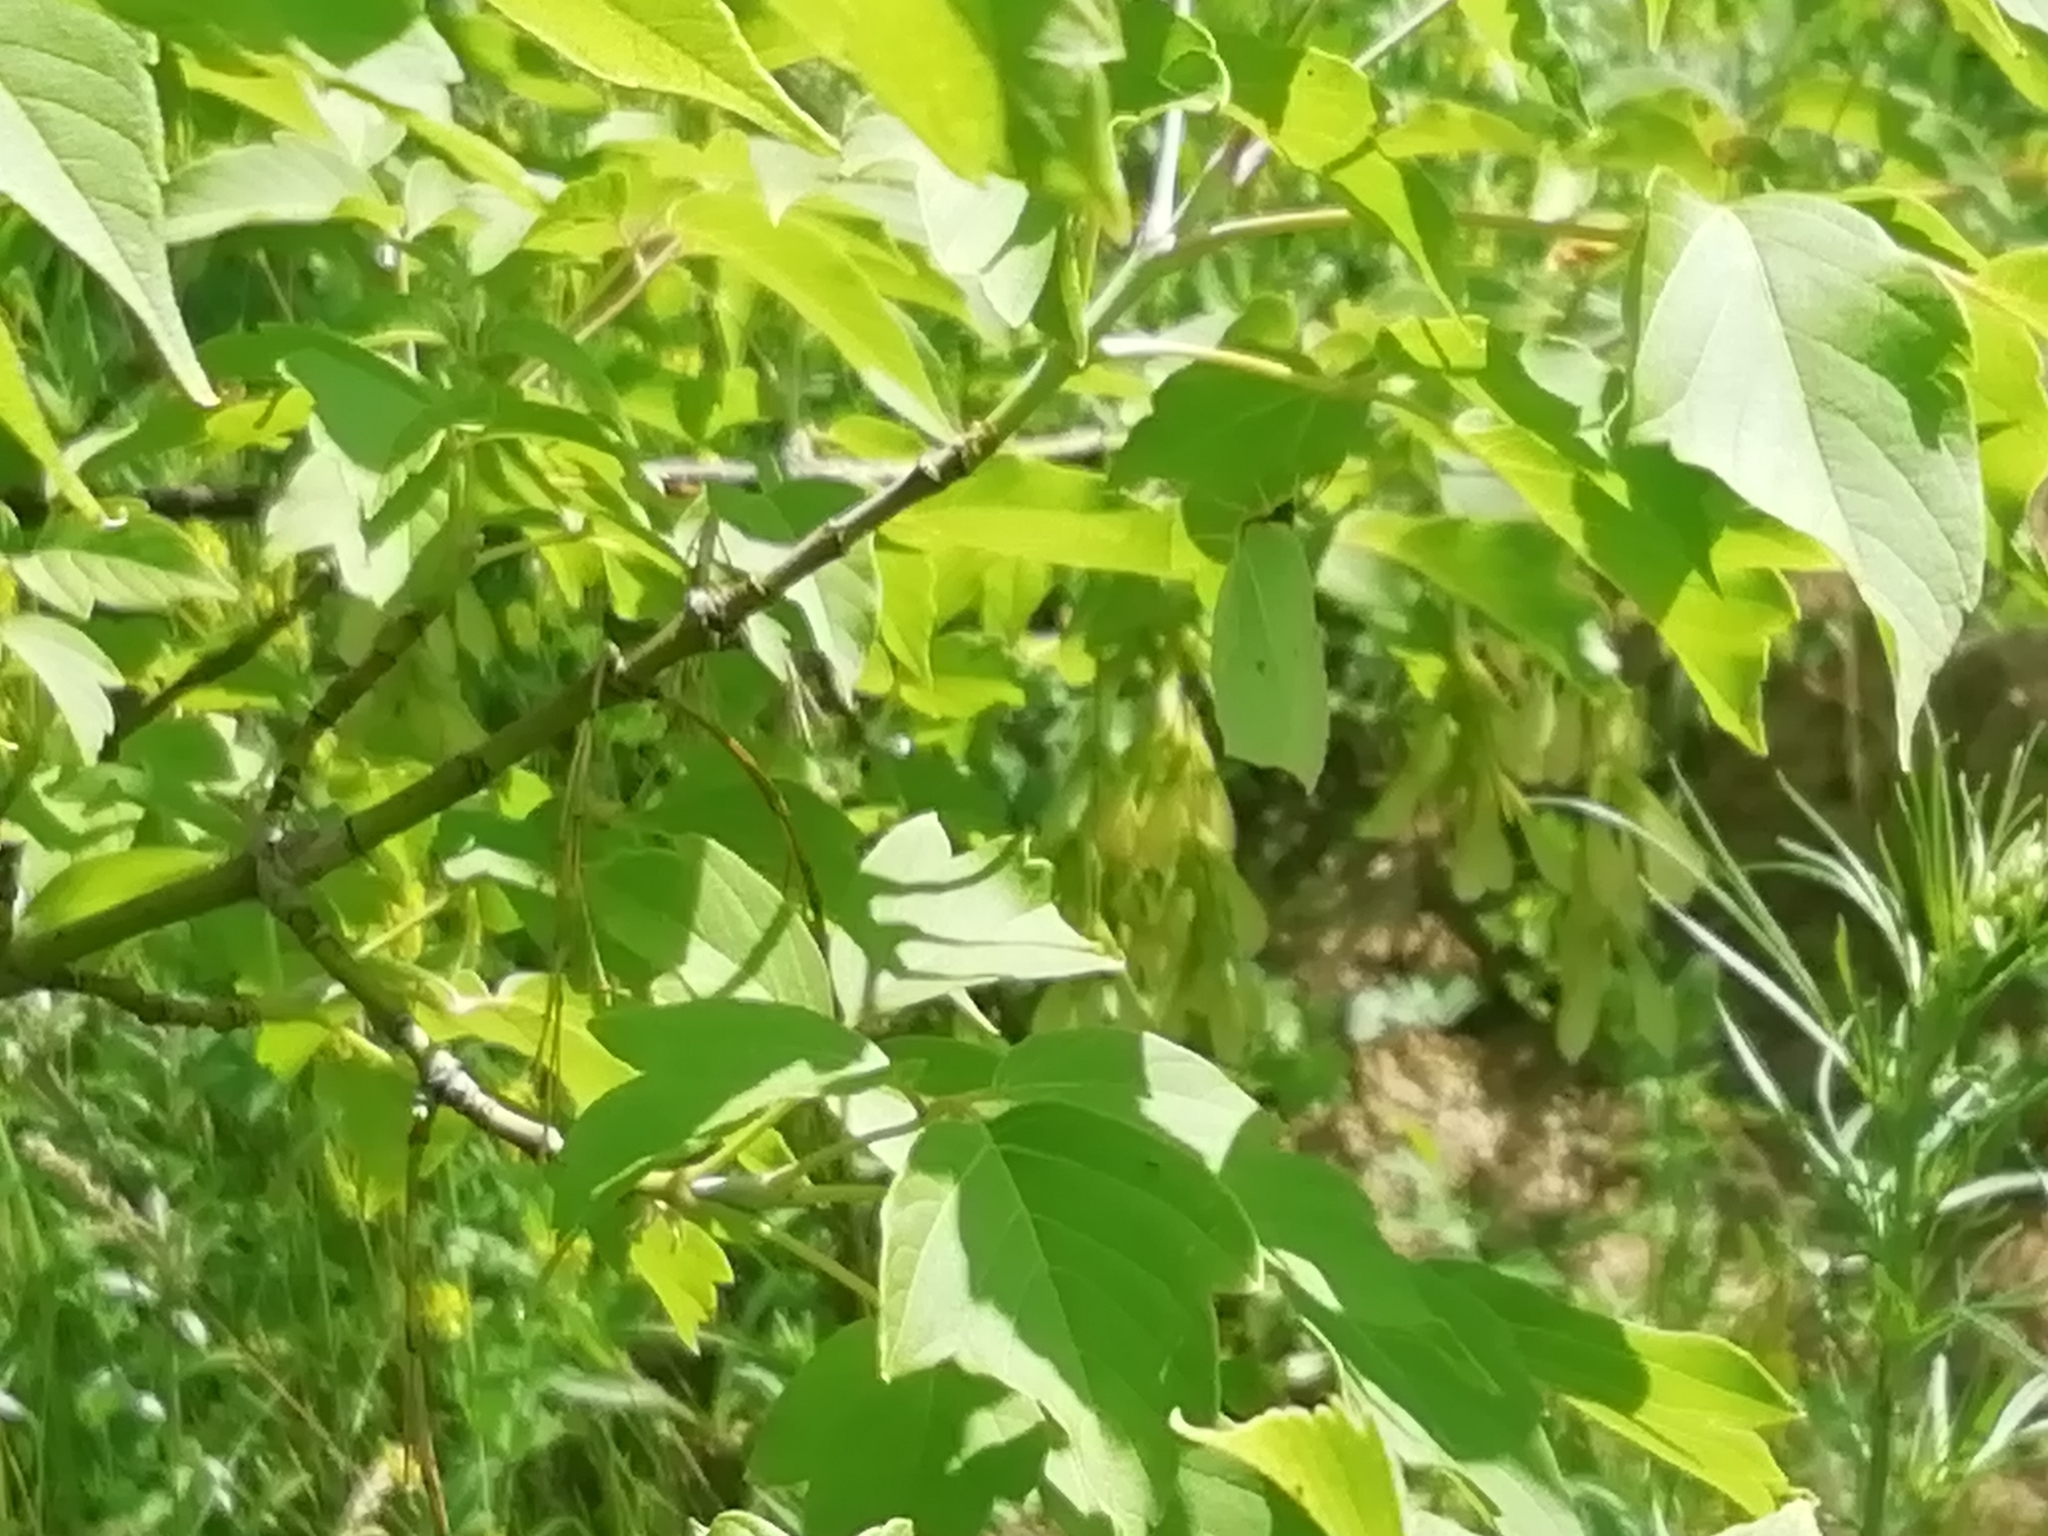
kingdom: Animalia
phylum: Arthropoda
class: Insecta
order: Lepidoptera
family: Pieridae
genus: Gonepteryx
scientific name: Gonepteryx rhamni
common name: Brimstone
